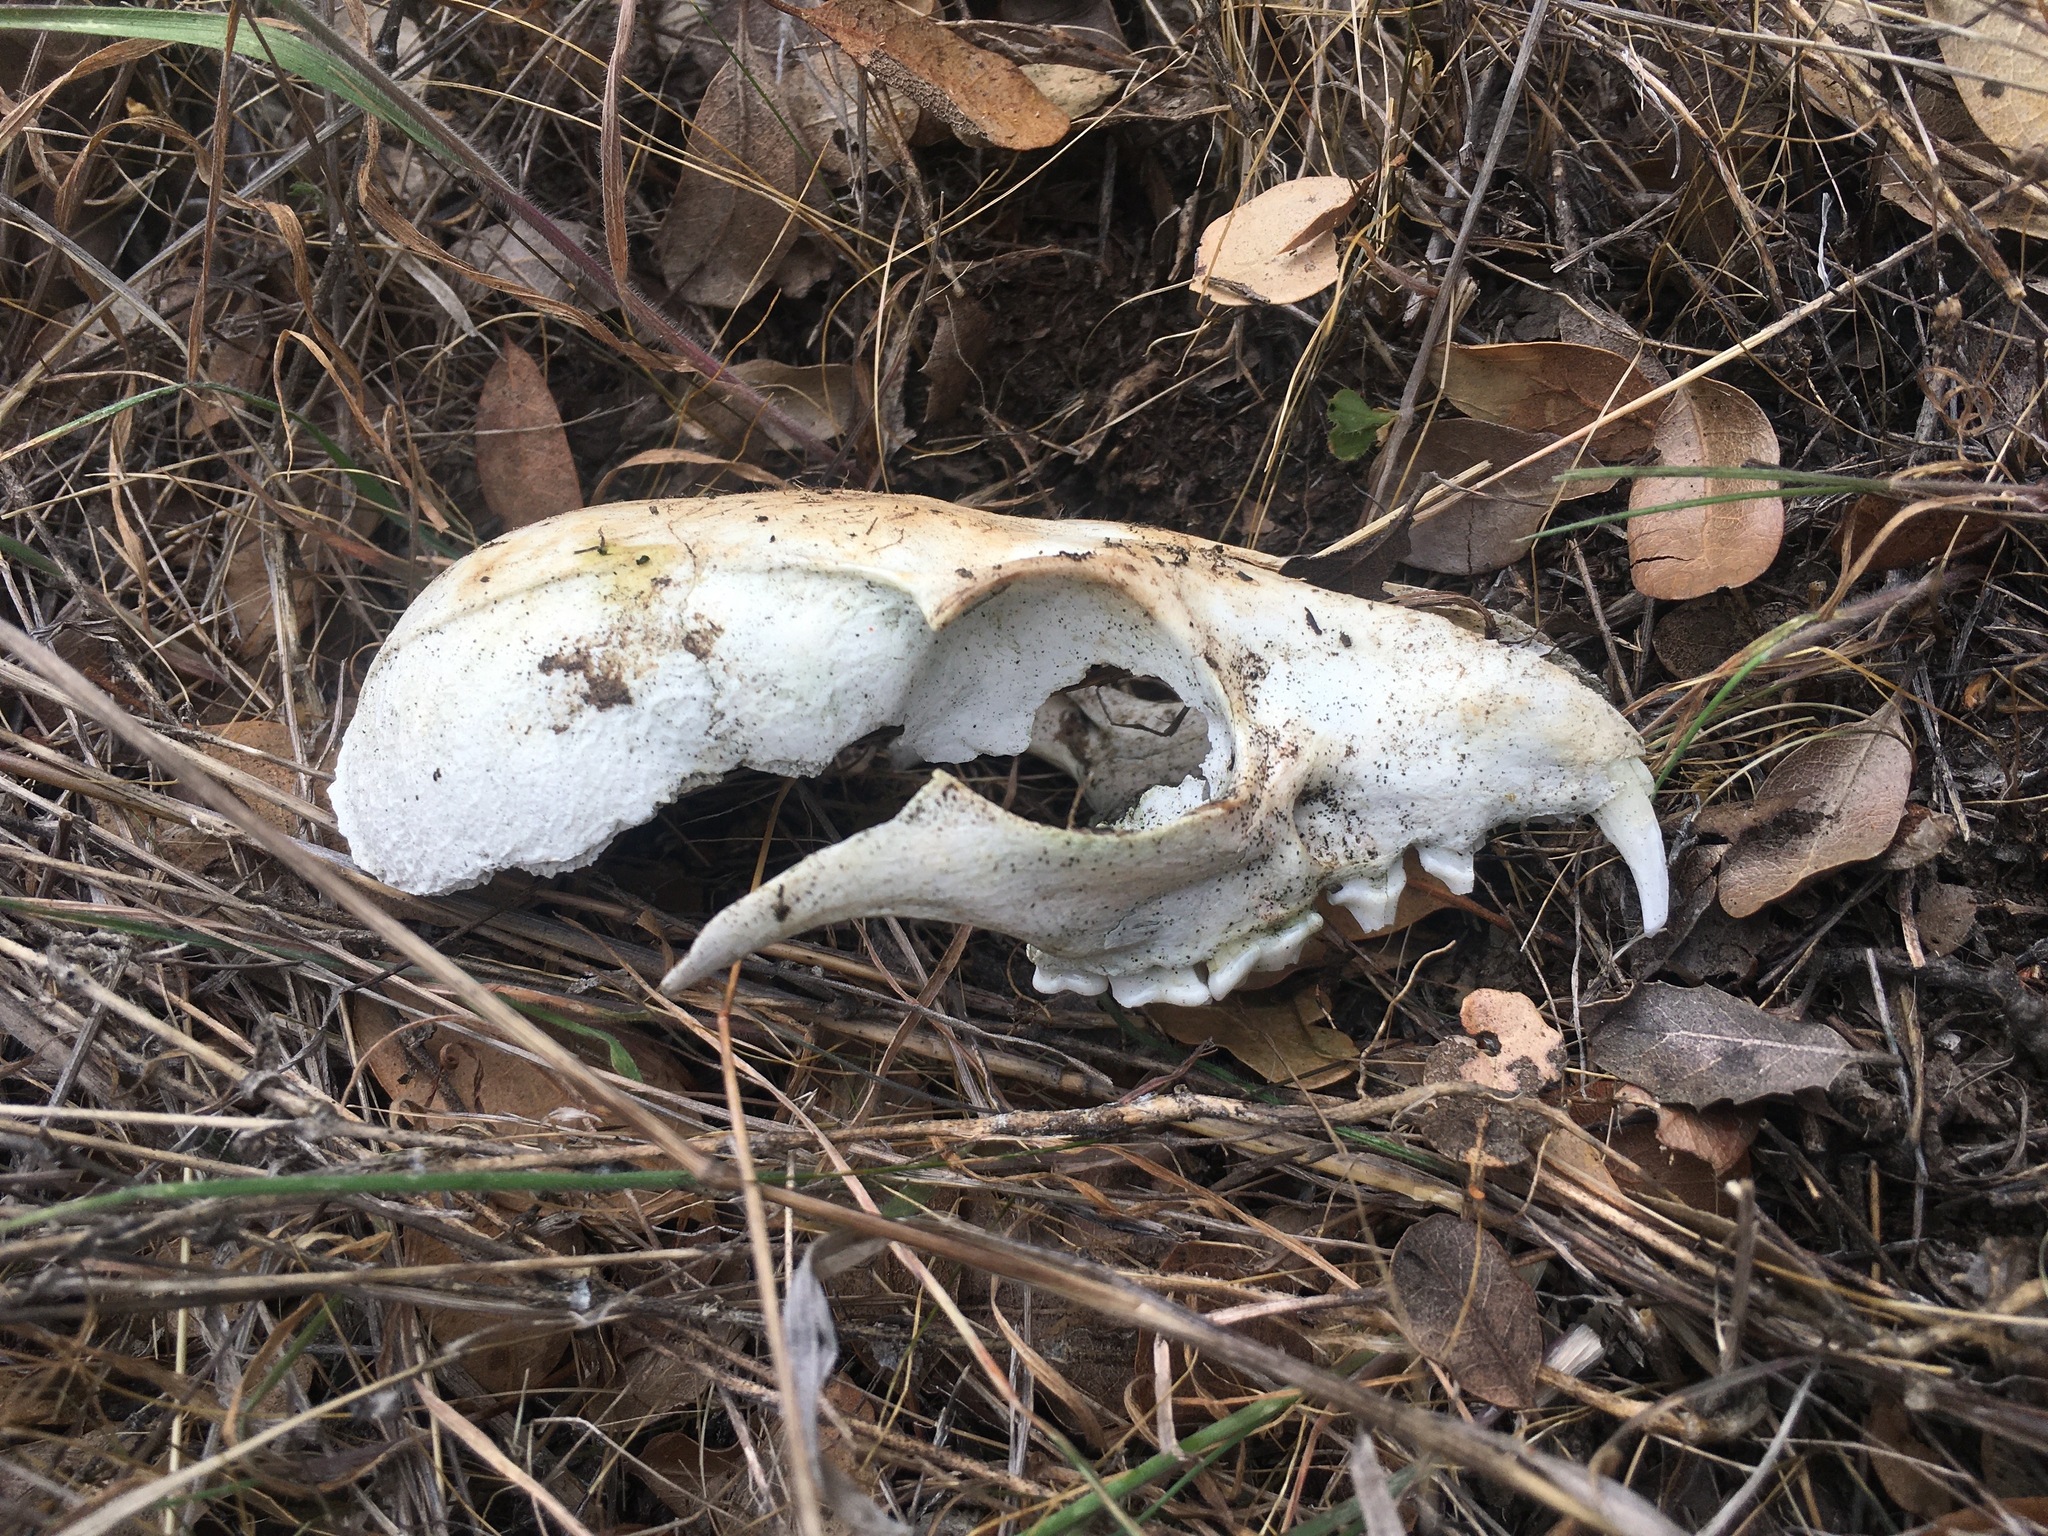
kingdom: Animalia
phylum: Chordata
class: Mammalia
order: Carnivora
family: Canidae
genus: Urocyon
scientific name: Urocyon littoralis
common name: Island gray fox
